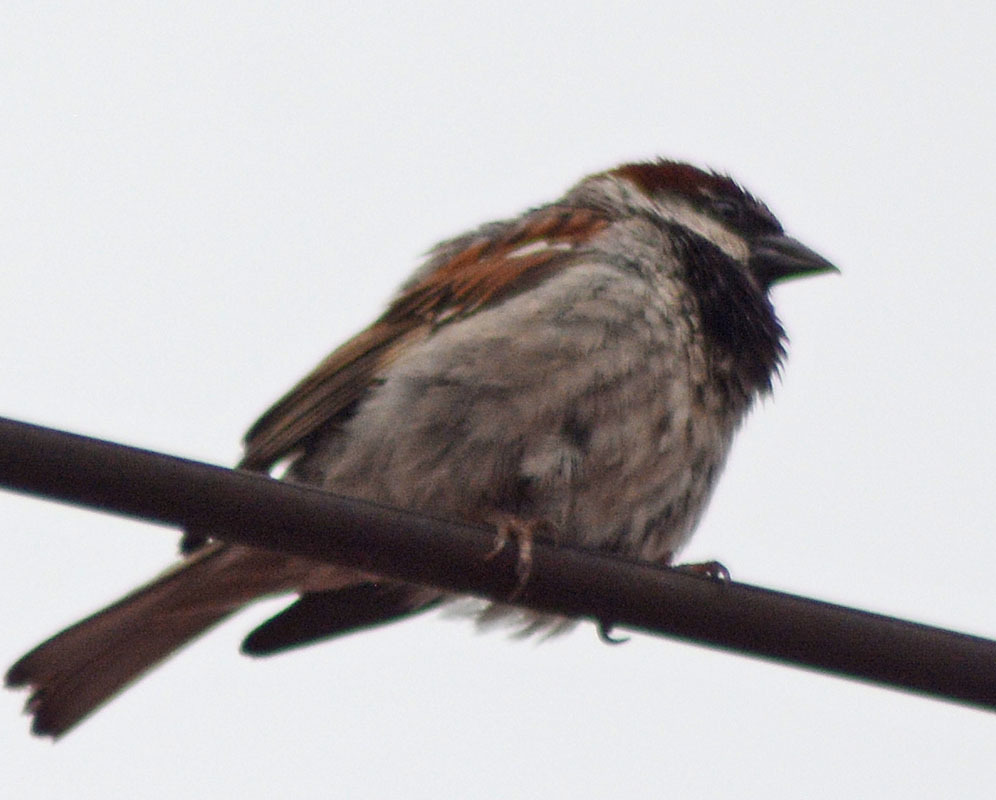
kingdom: Animalia
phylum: Chordata
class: Aves
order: Passeriformes
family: Passeridae
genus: Passer
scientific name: Passer domesticus
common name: House sparrow
